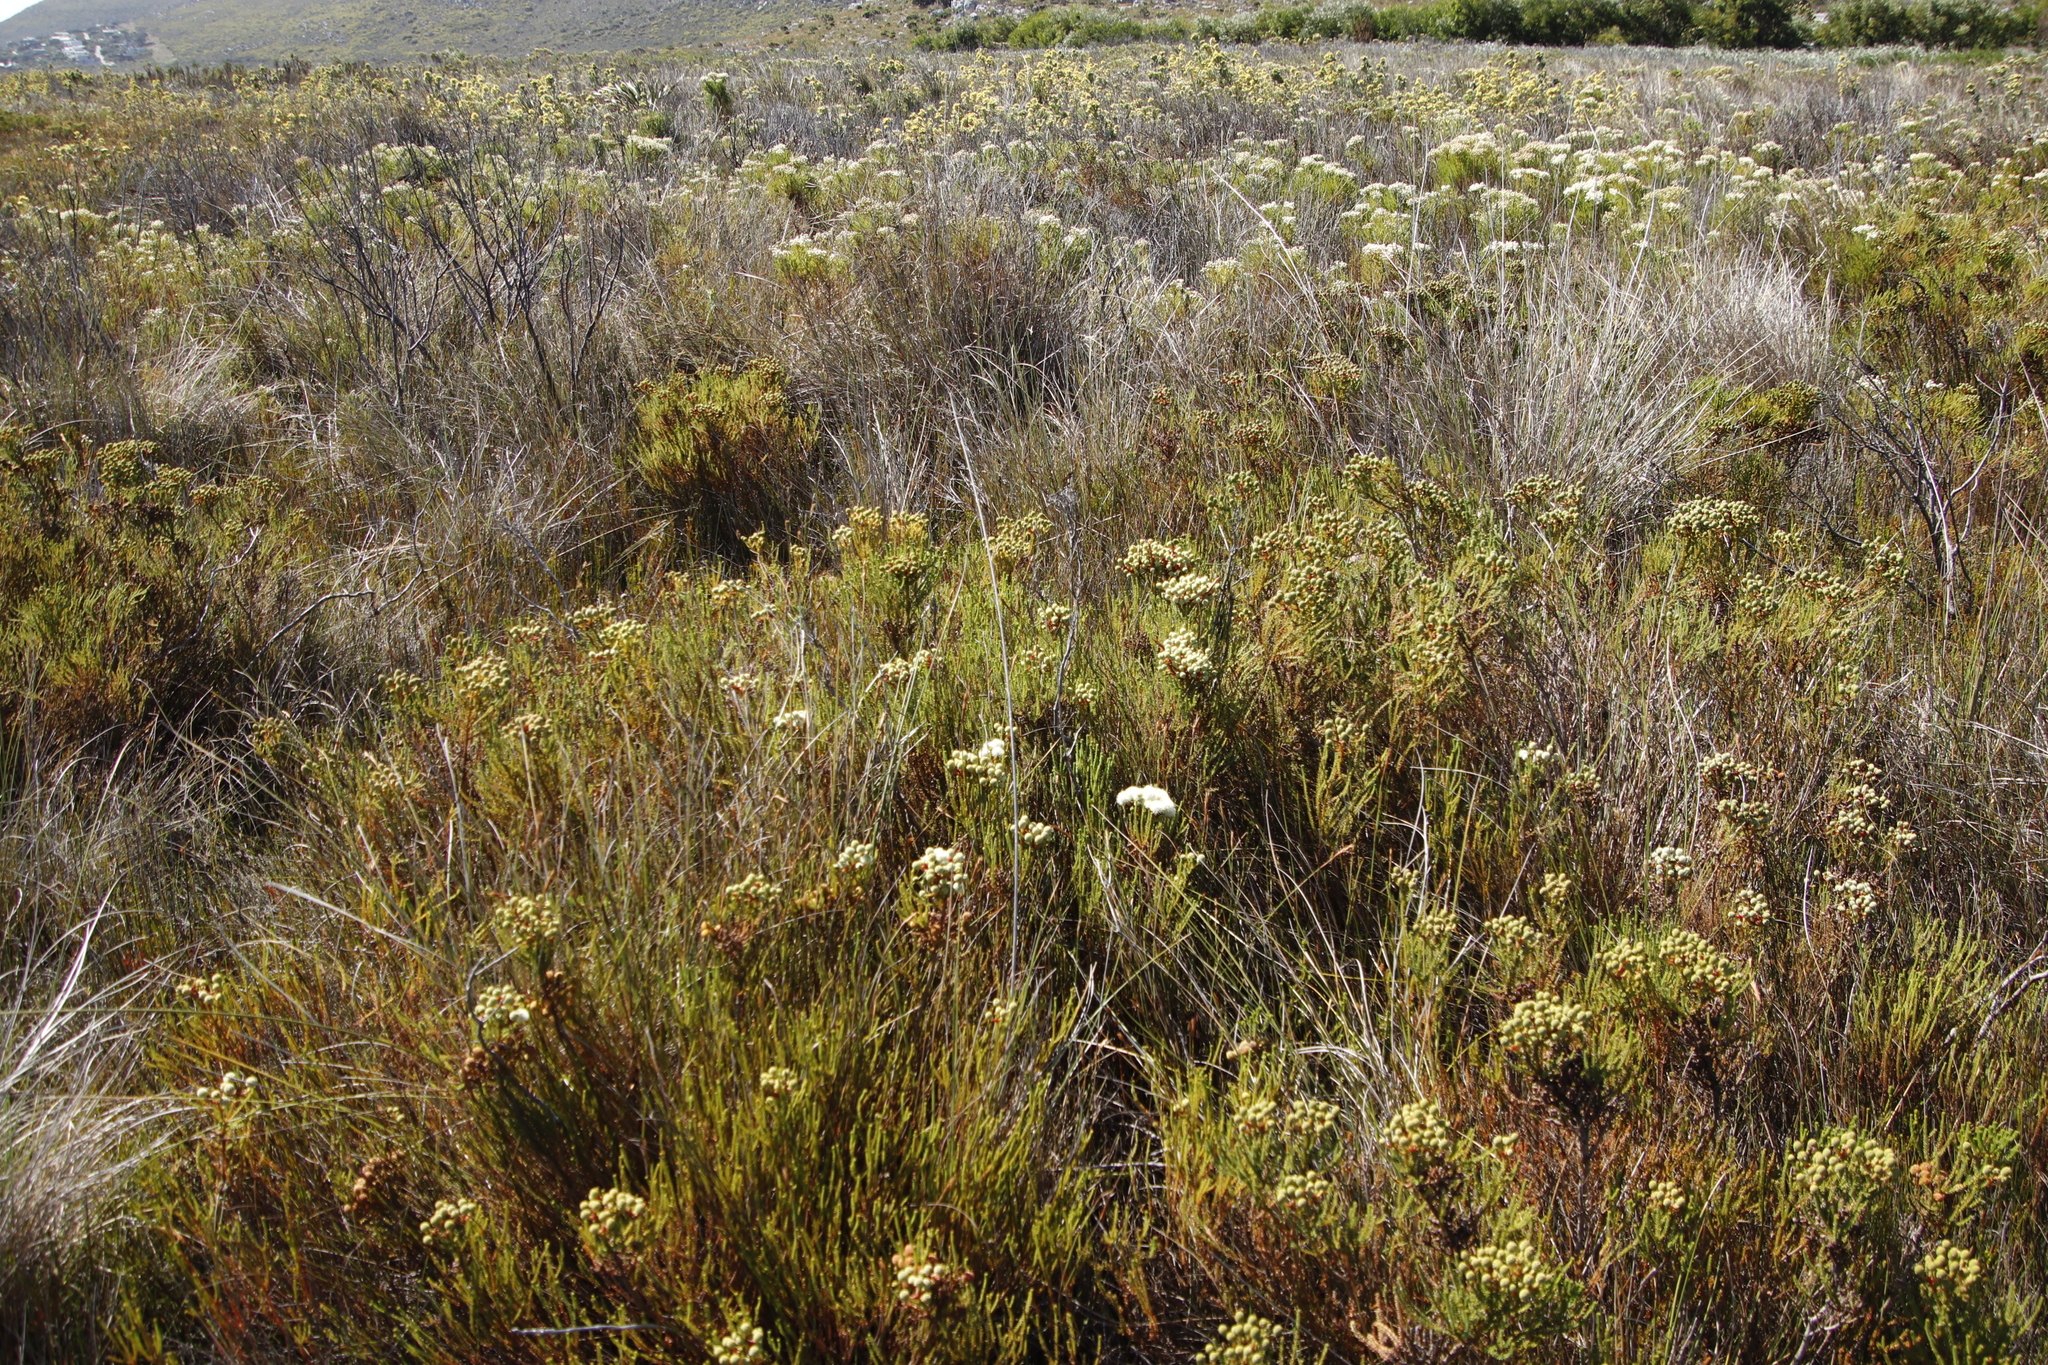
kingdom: Plantae
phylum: Tracheophyta
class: Magnoliopsida
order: Bruniales
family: Bruniaceae
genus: Berzelia
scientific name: Berzelia abrotanoides
